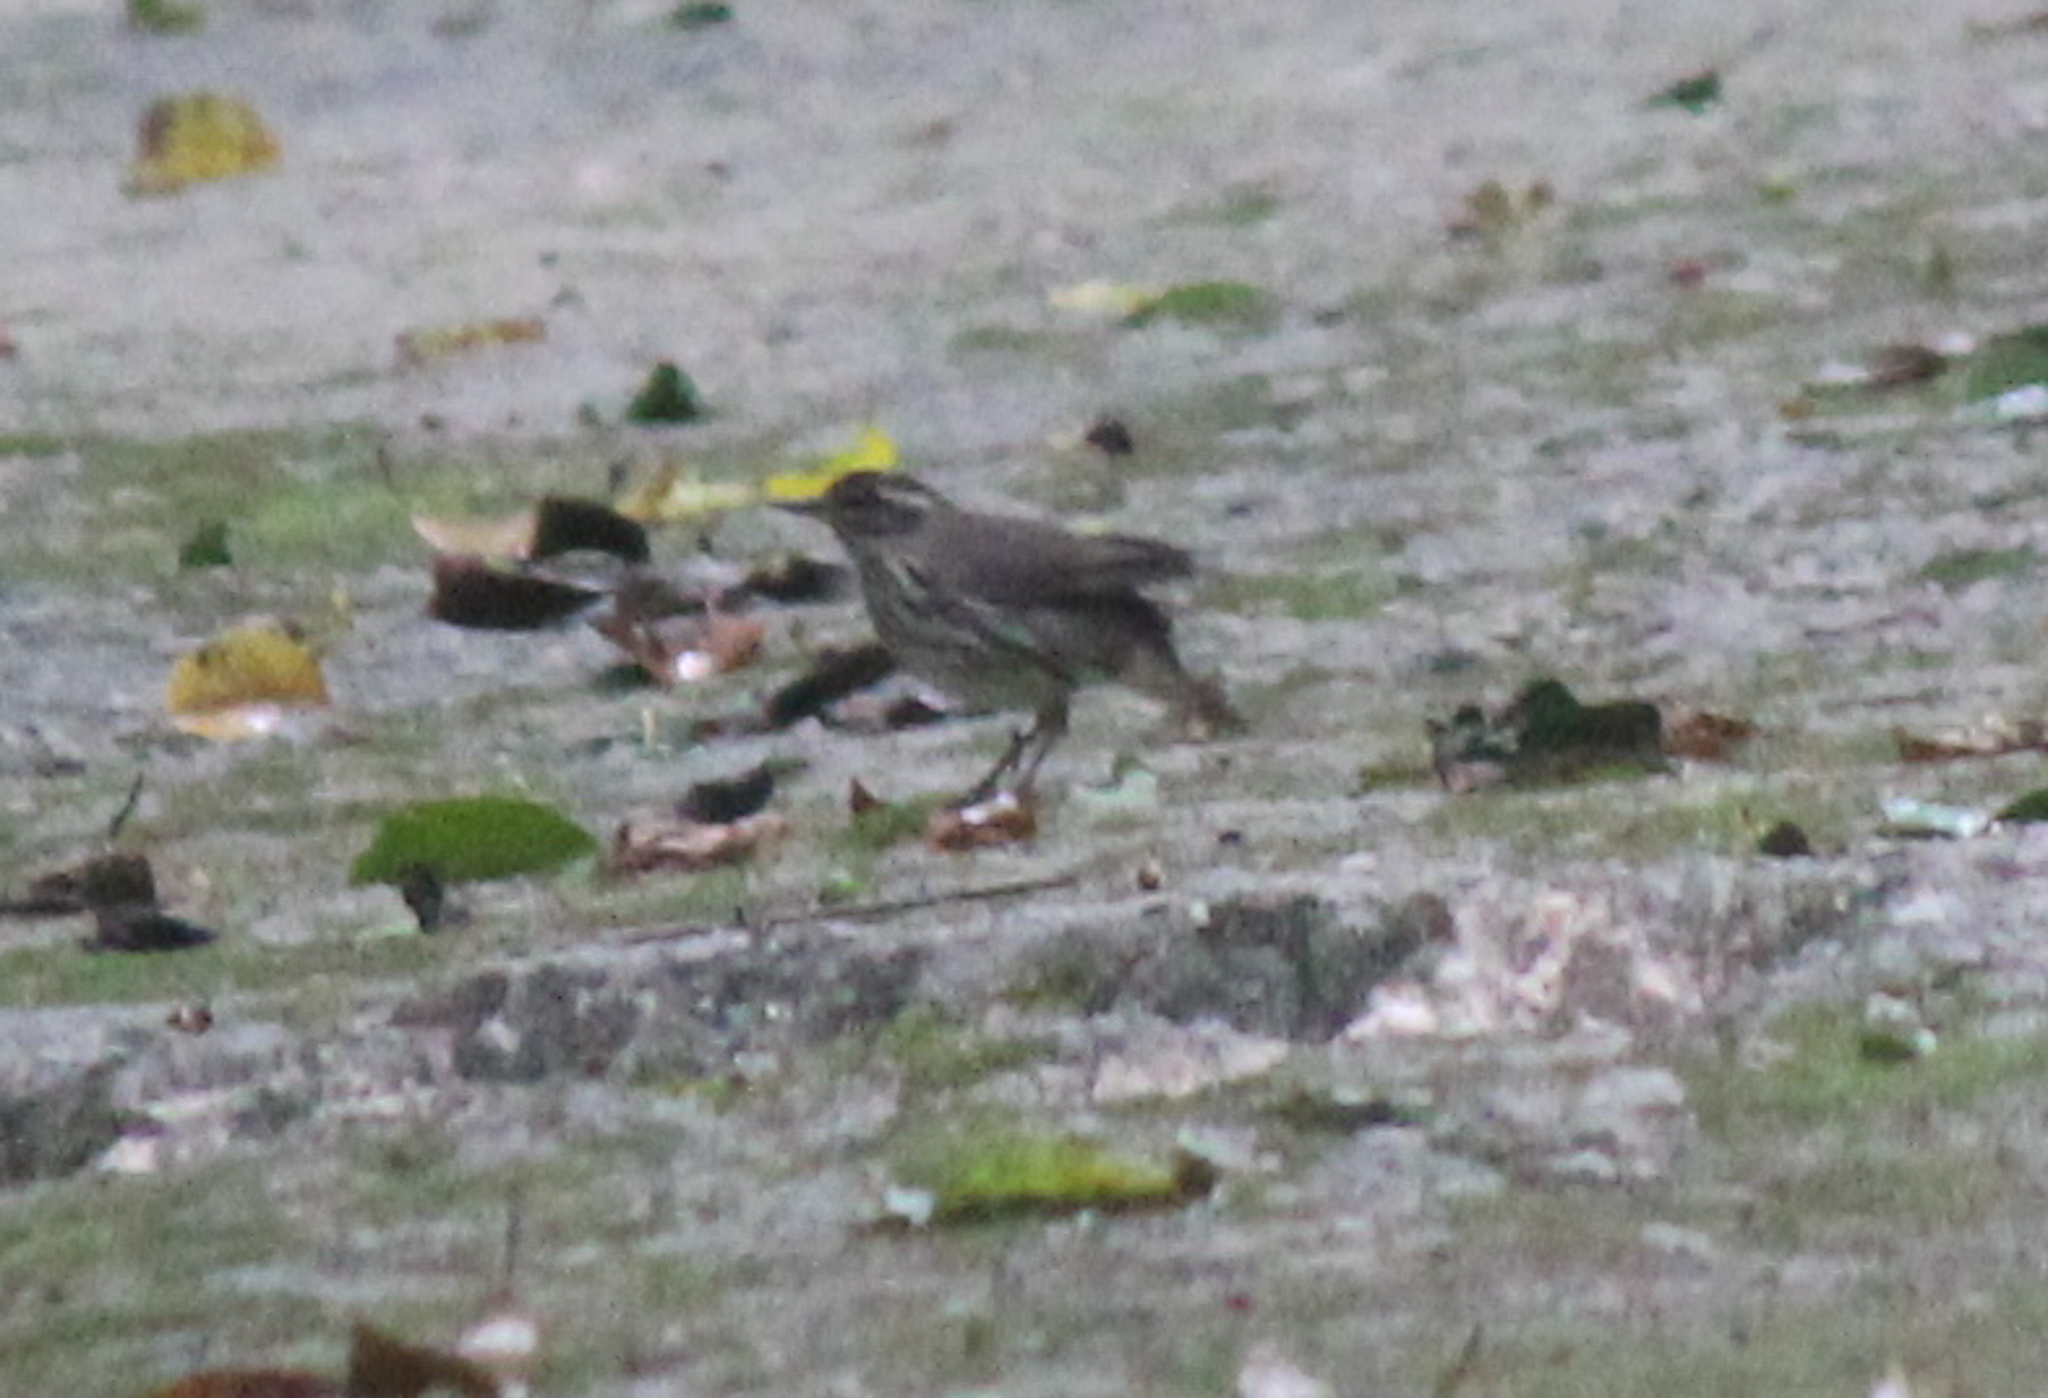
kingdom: Animalia
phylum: Chordata
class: Aves
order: Passeriformes
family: Parulidae
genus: Parkesia
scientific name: Parkesia noveboracensis
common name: Northern waterthrush
